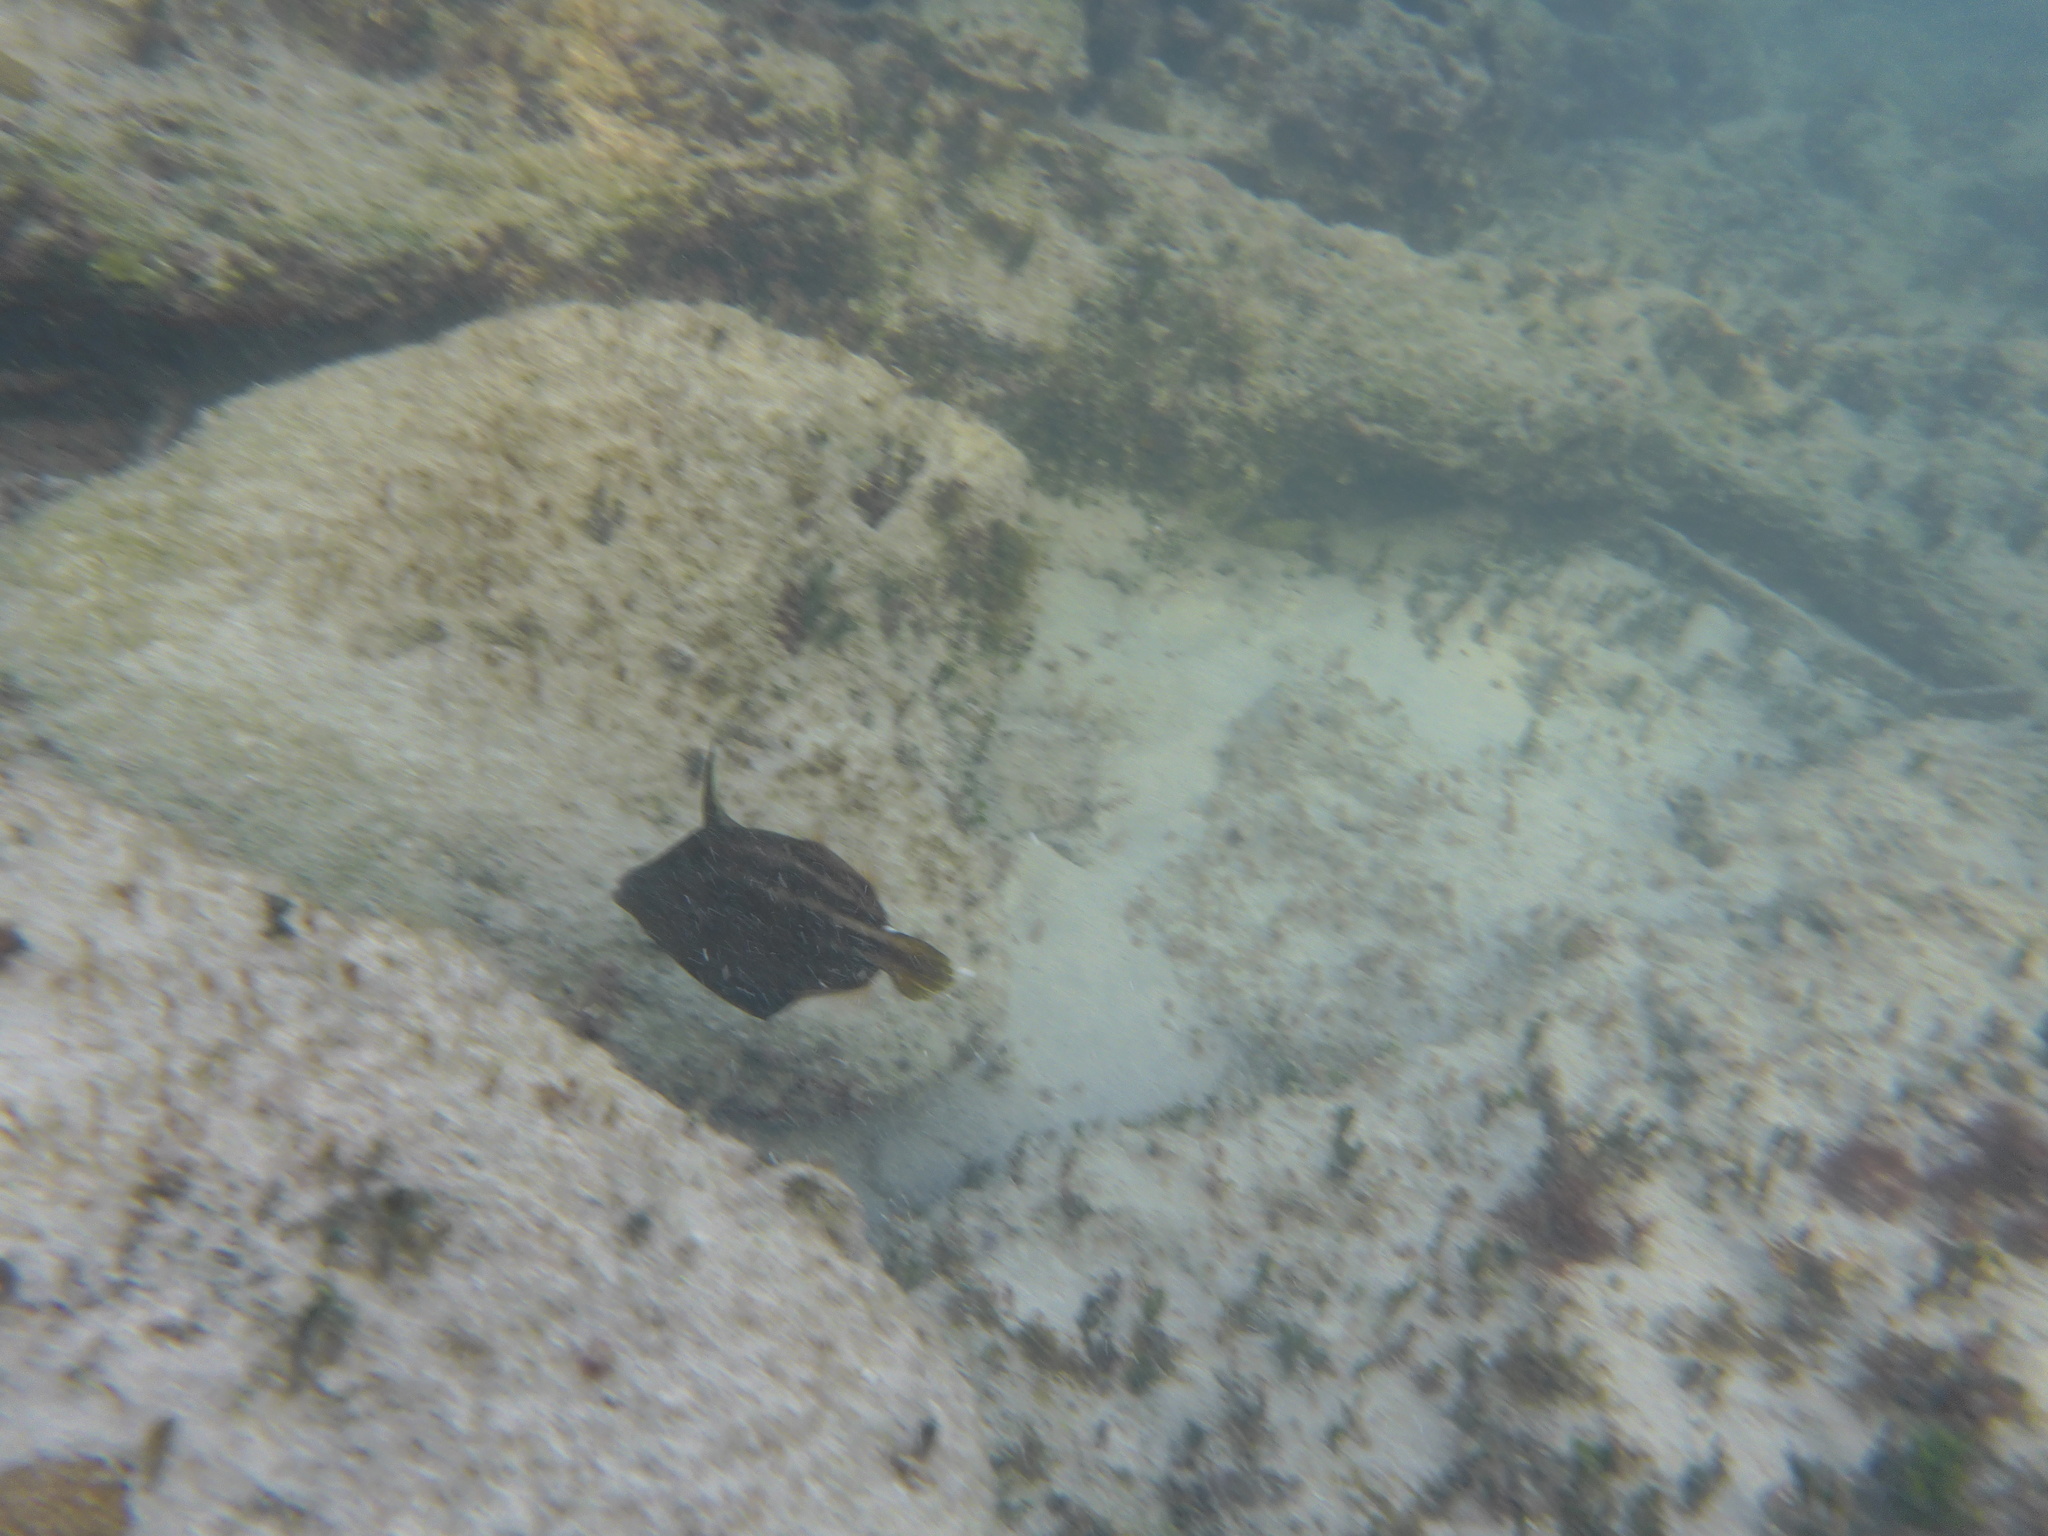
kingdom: Animalia
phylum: Chordata
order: Tetraodontiformes
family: Monacanthidae
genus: Cantherhines
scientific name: Cantherhines pullus
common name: Orangespotted filefish
